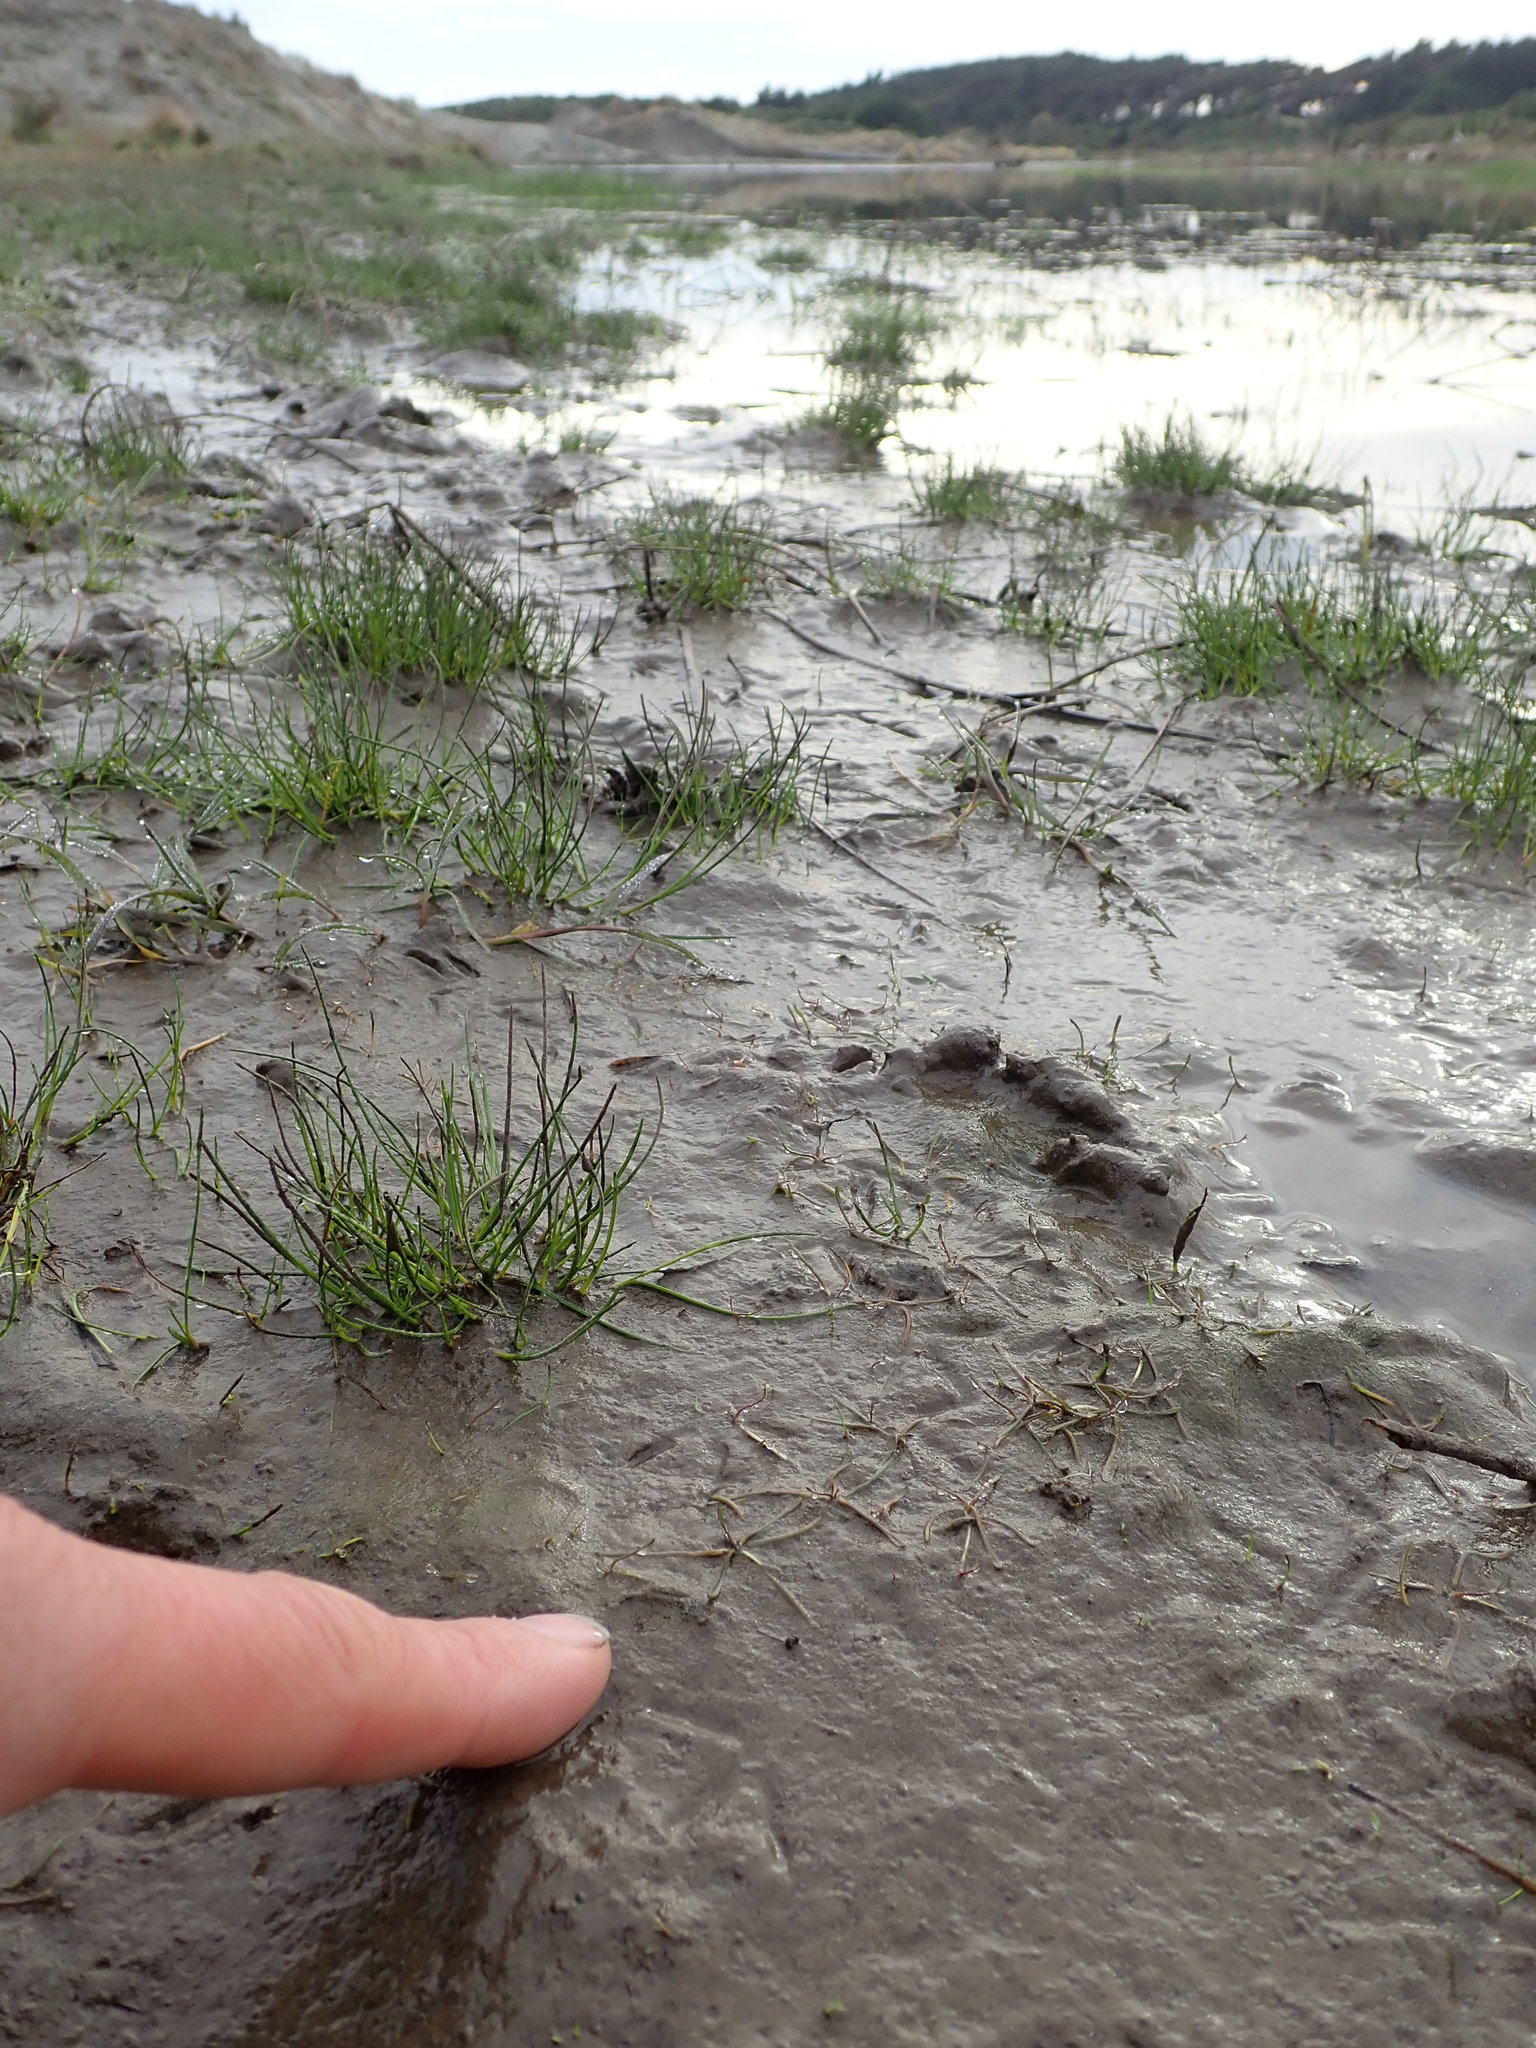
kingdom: Plantae
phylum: Tracheophyta
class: Magnoliopsida
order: Lamiales
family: Scrophulariaceae
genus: Limosella
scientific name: Limosella australis
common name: Welsh mudwort
